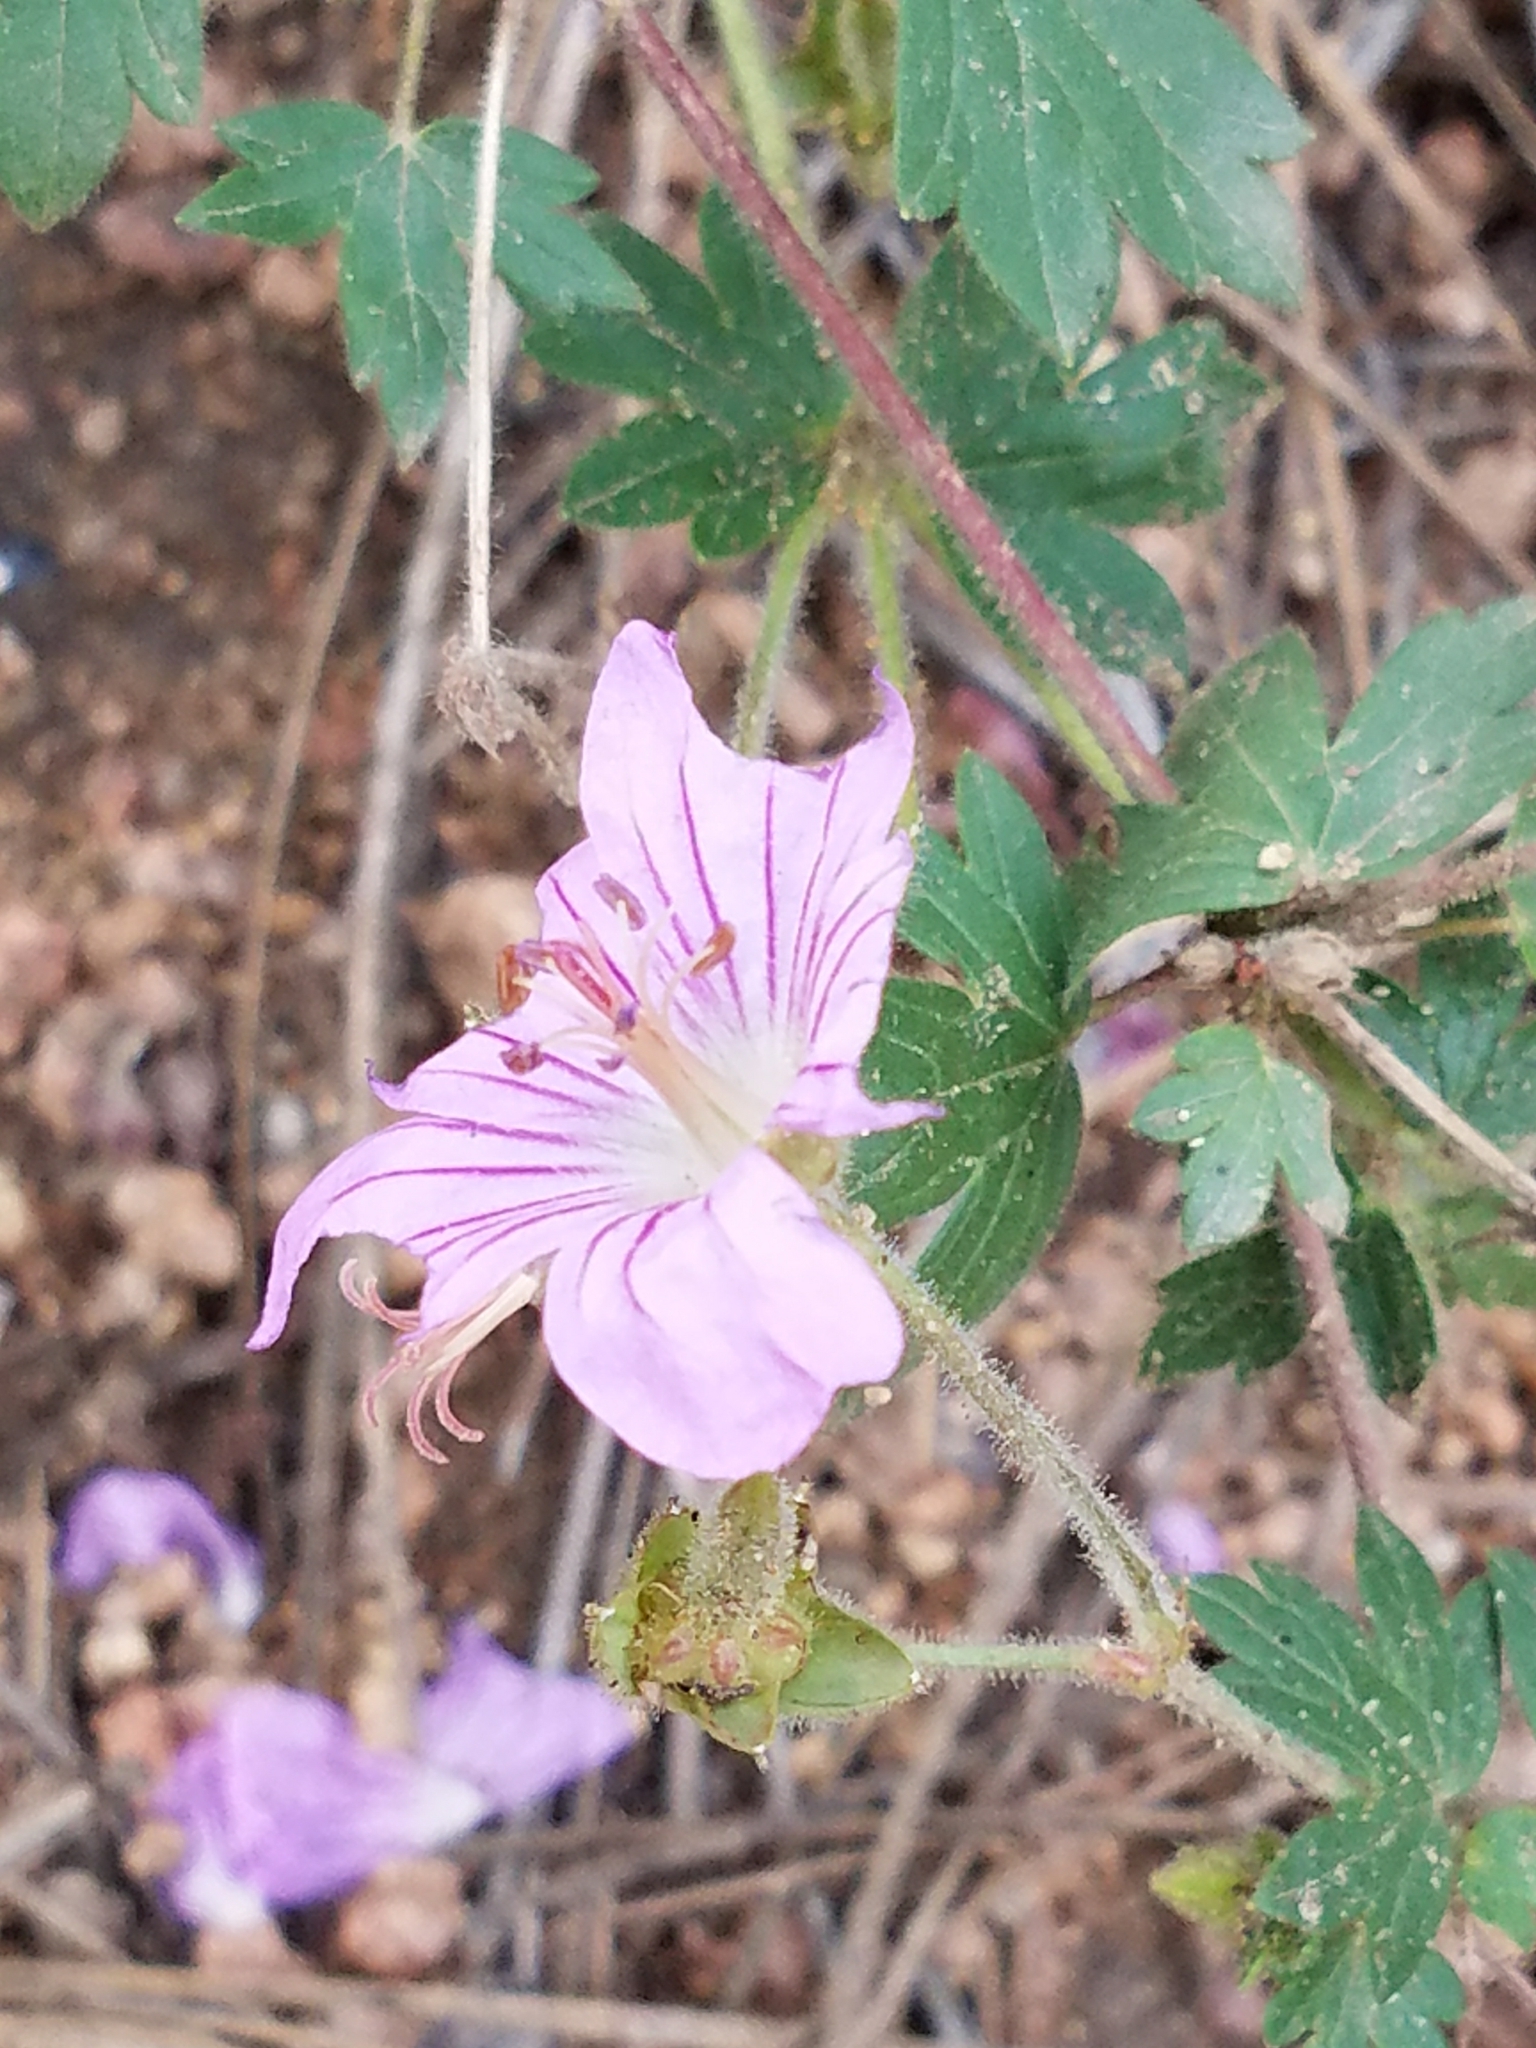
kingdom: Plantae
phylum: Tracheophyta
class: Magnoliopsida
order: Geraniales
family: Geraniaceae
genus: Geranium
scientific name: Geranium caespitosum
